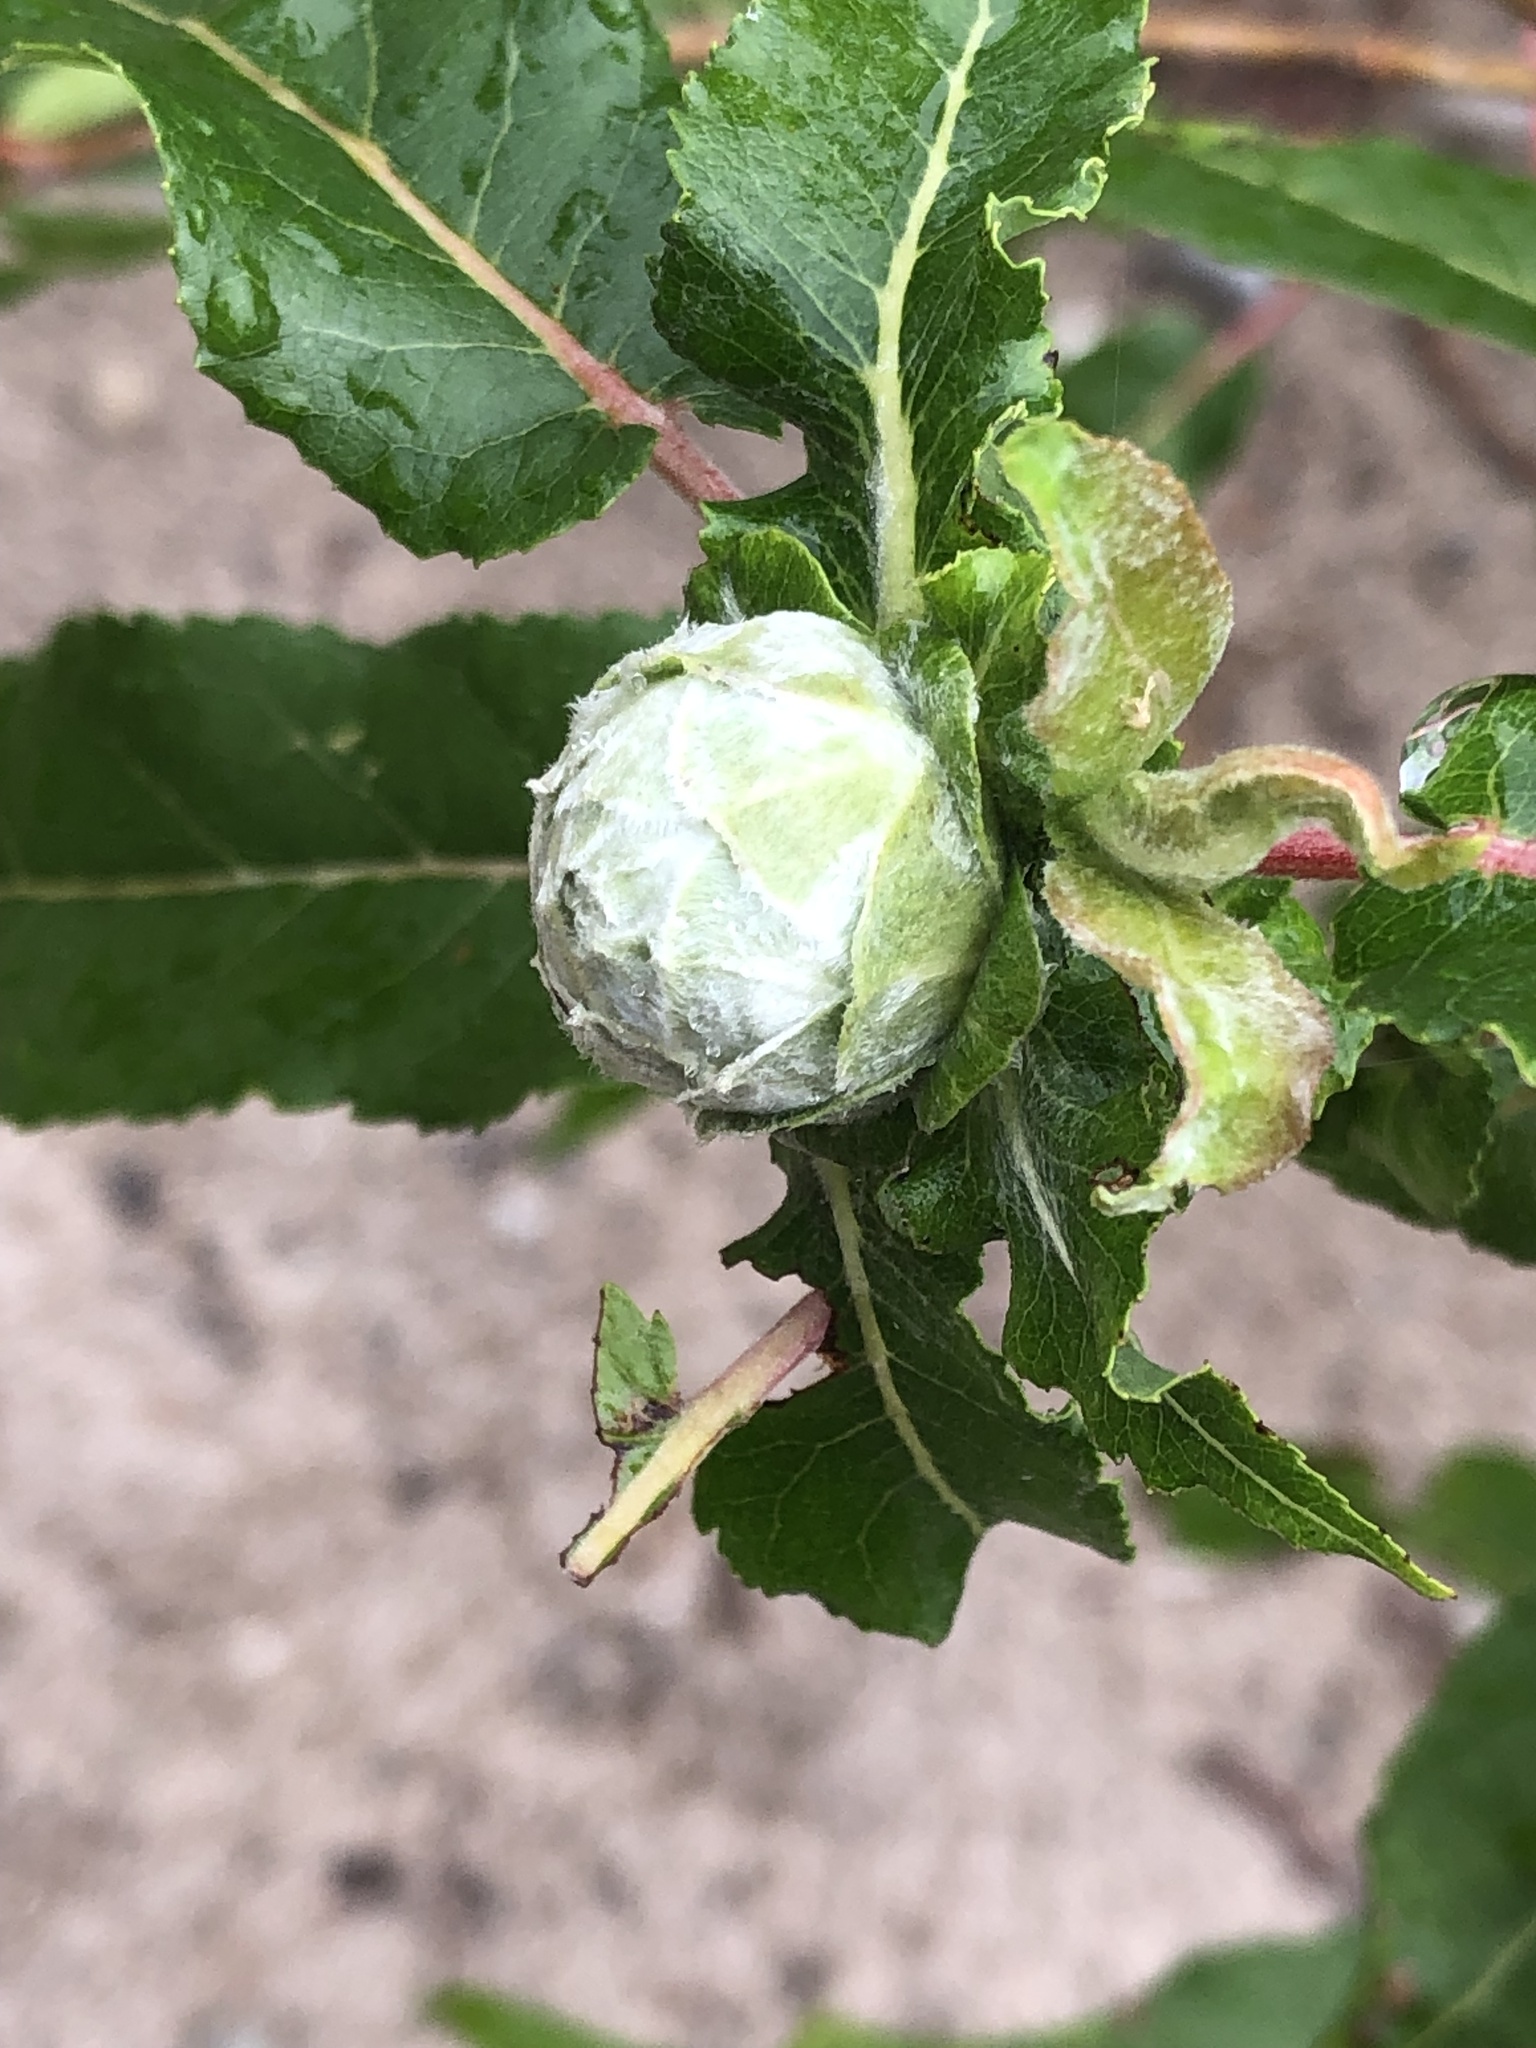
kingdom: Animalia
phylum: Arthropoda
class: Insecta
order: Diptera
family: Cecidomyiidae
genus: Rabdophaga
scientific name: Rabdophaga strobiloides
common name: Willow pinecone gall midge
